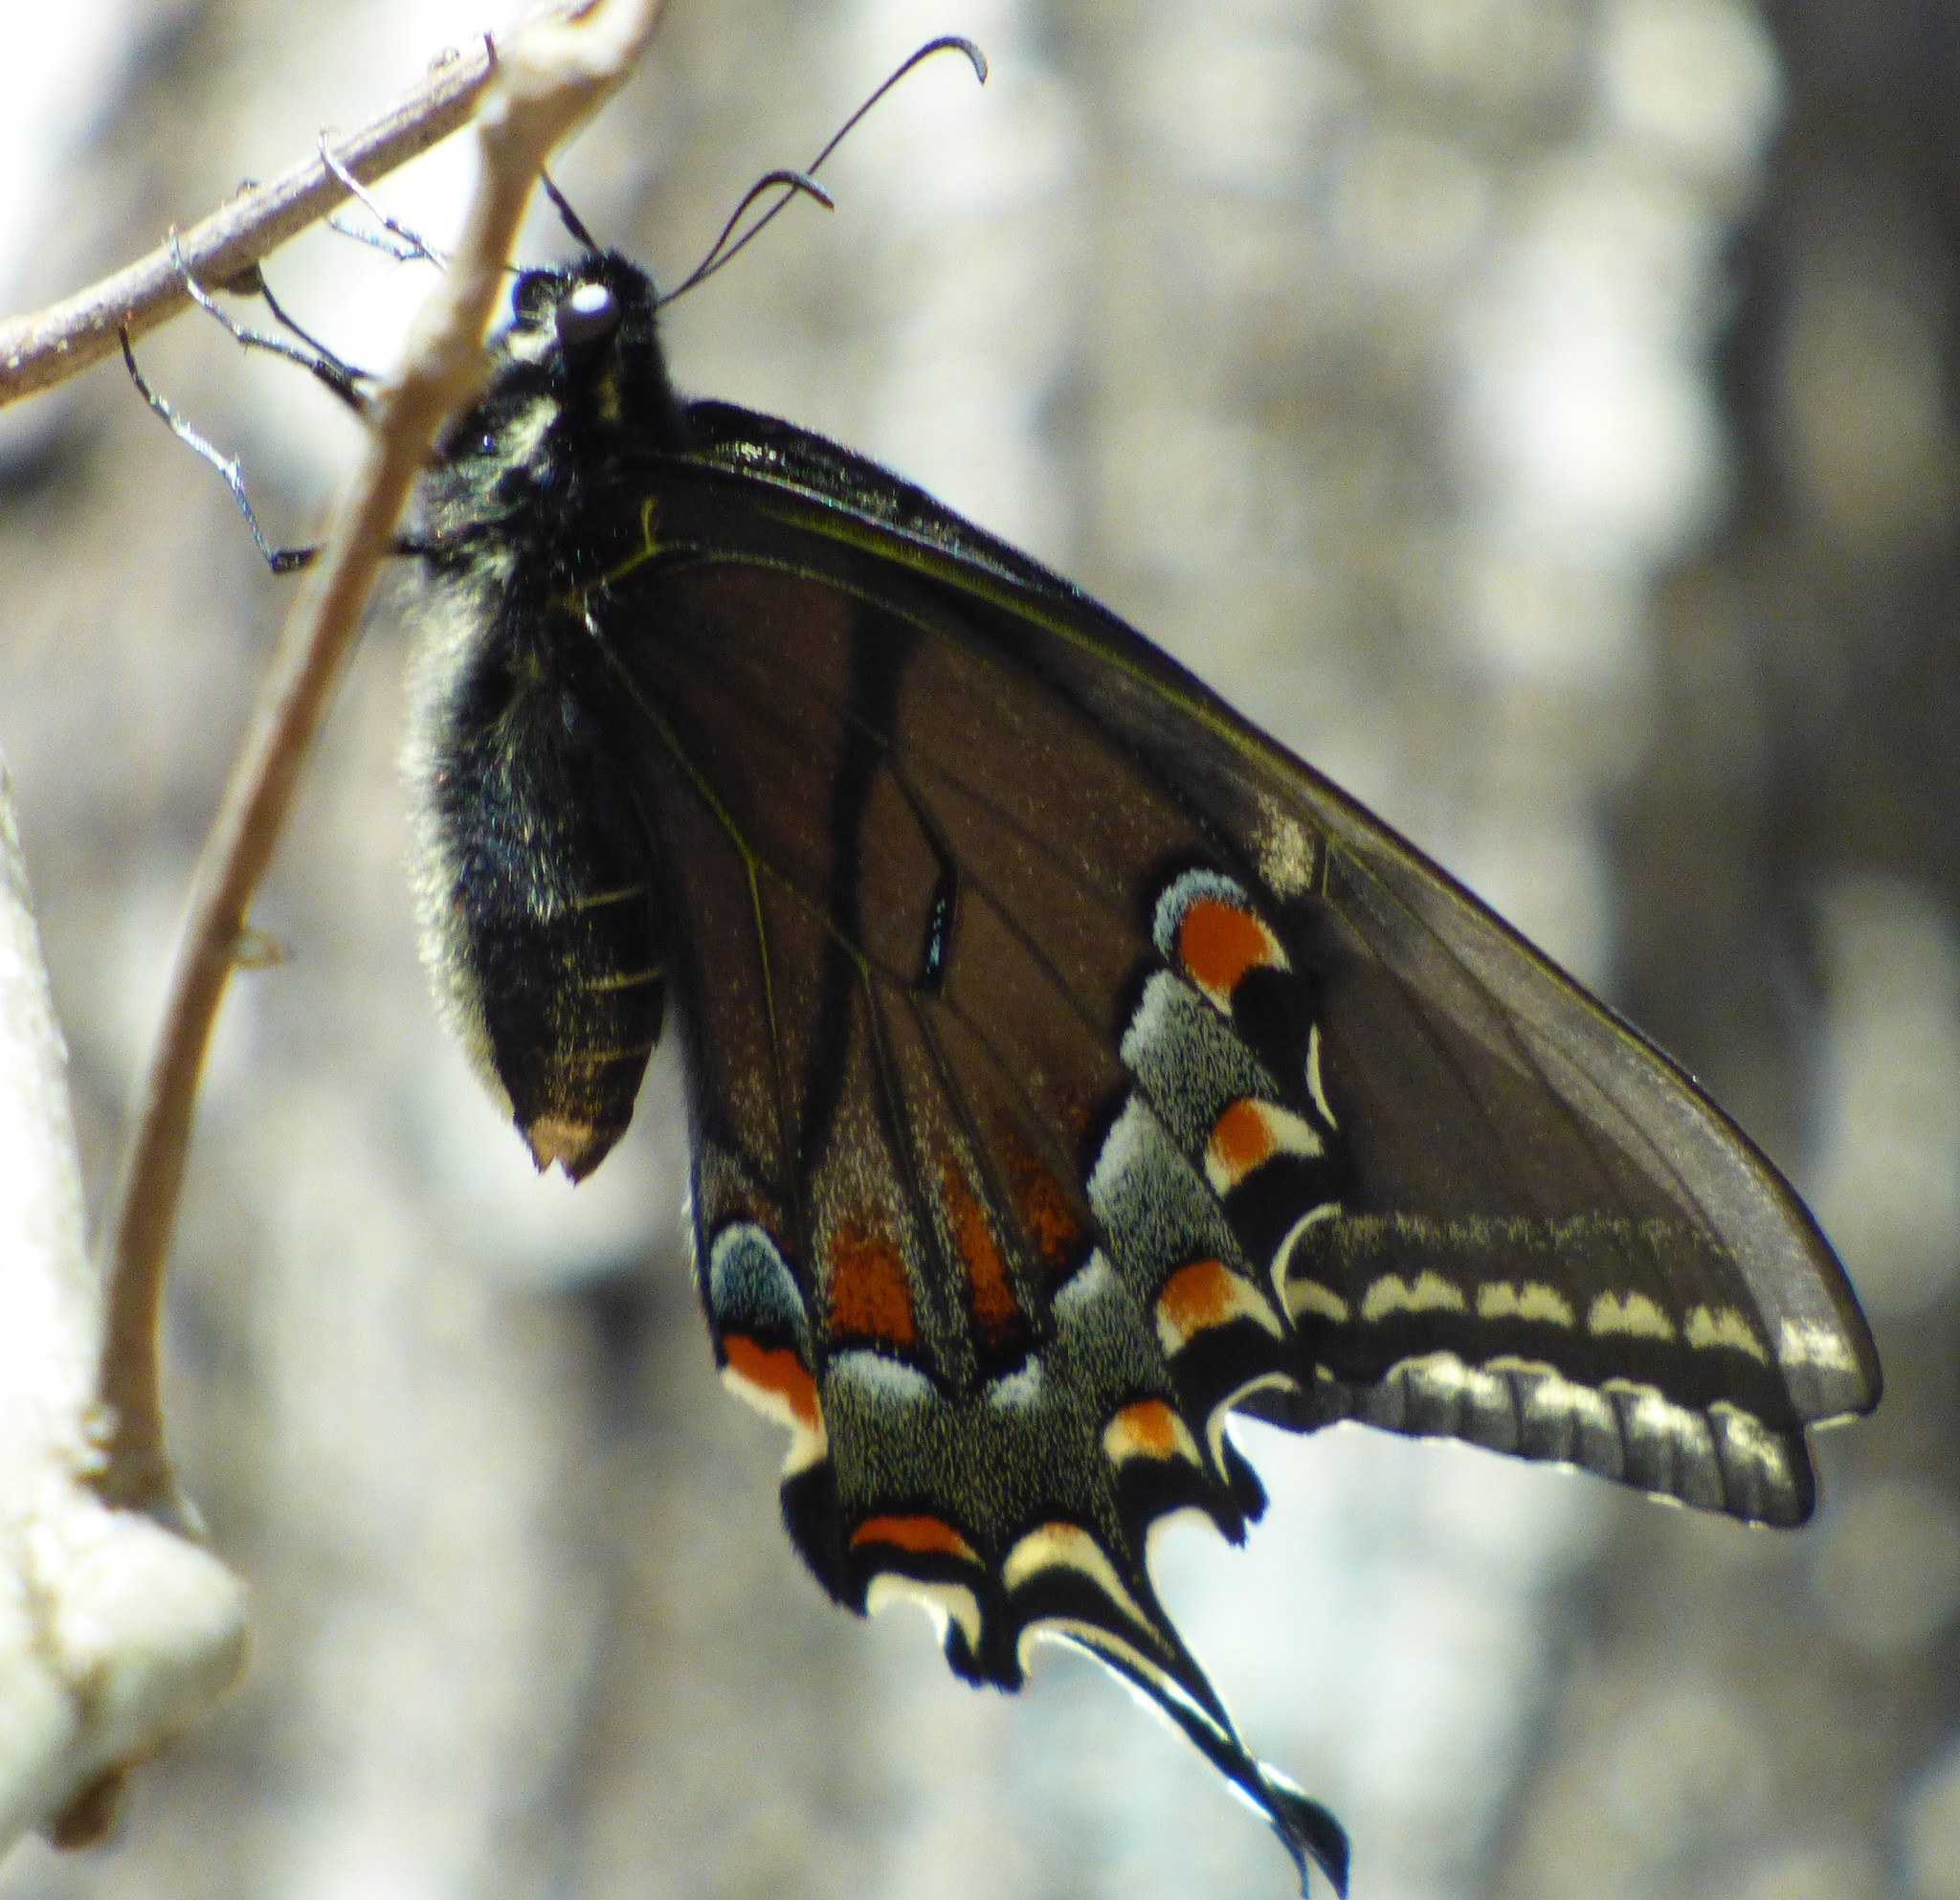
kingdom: Animalia
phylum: Arthropoda
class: Insecta
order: Lepidoptera
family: Papilionidae
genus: Papilio
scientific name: Papilio glaucus
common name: Tiger swallowtail
